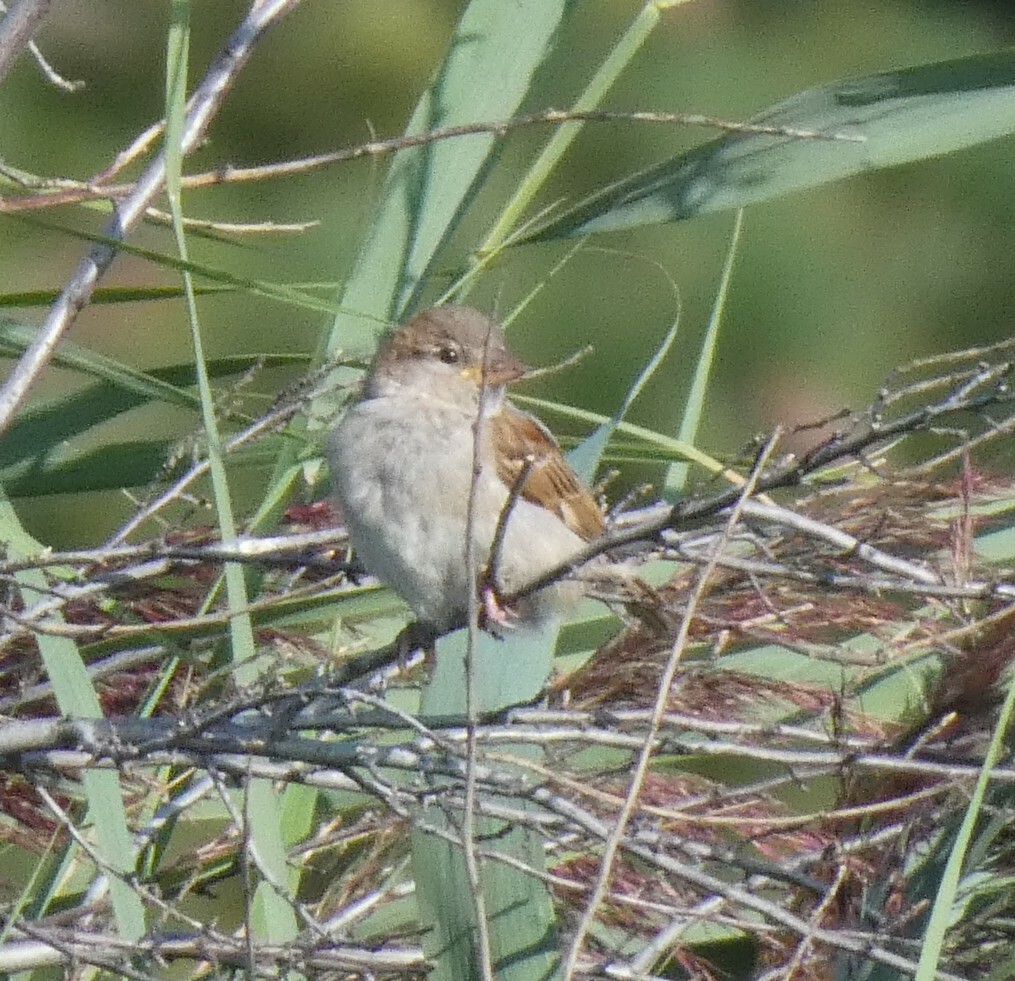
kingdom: Animalia
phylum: Chordata
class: Aves
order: Passeriformes
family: Passeridae
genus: Passer
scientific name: Passer domesticus
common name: House sparrow
